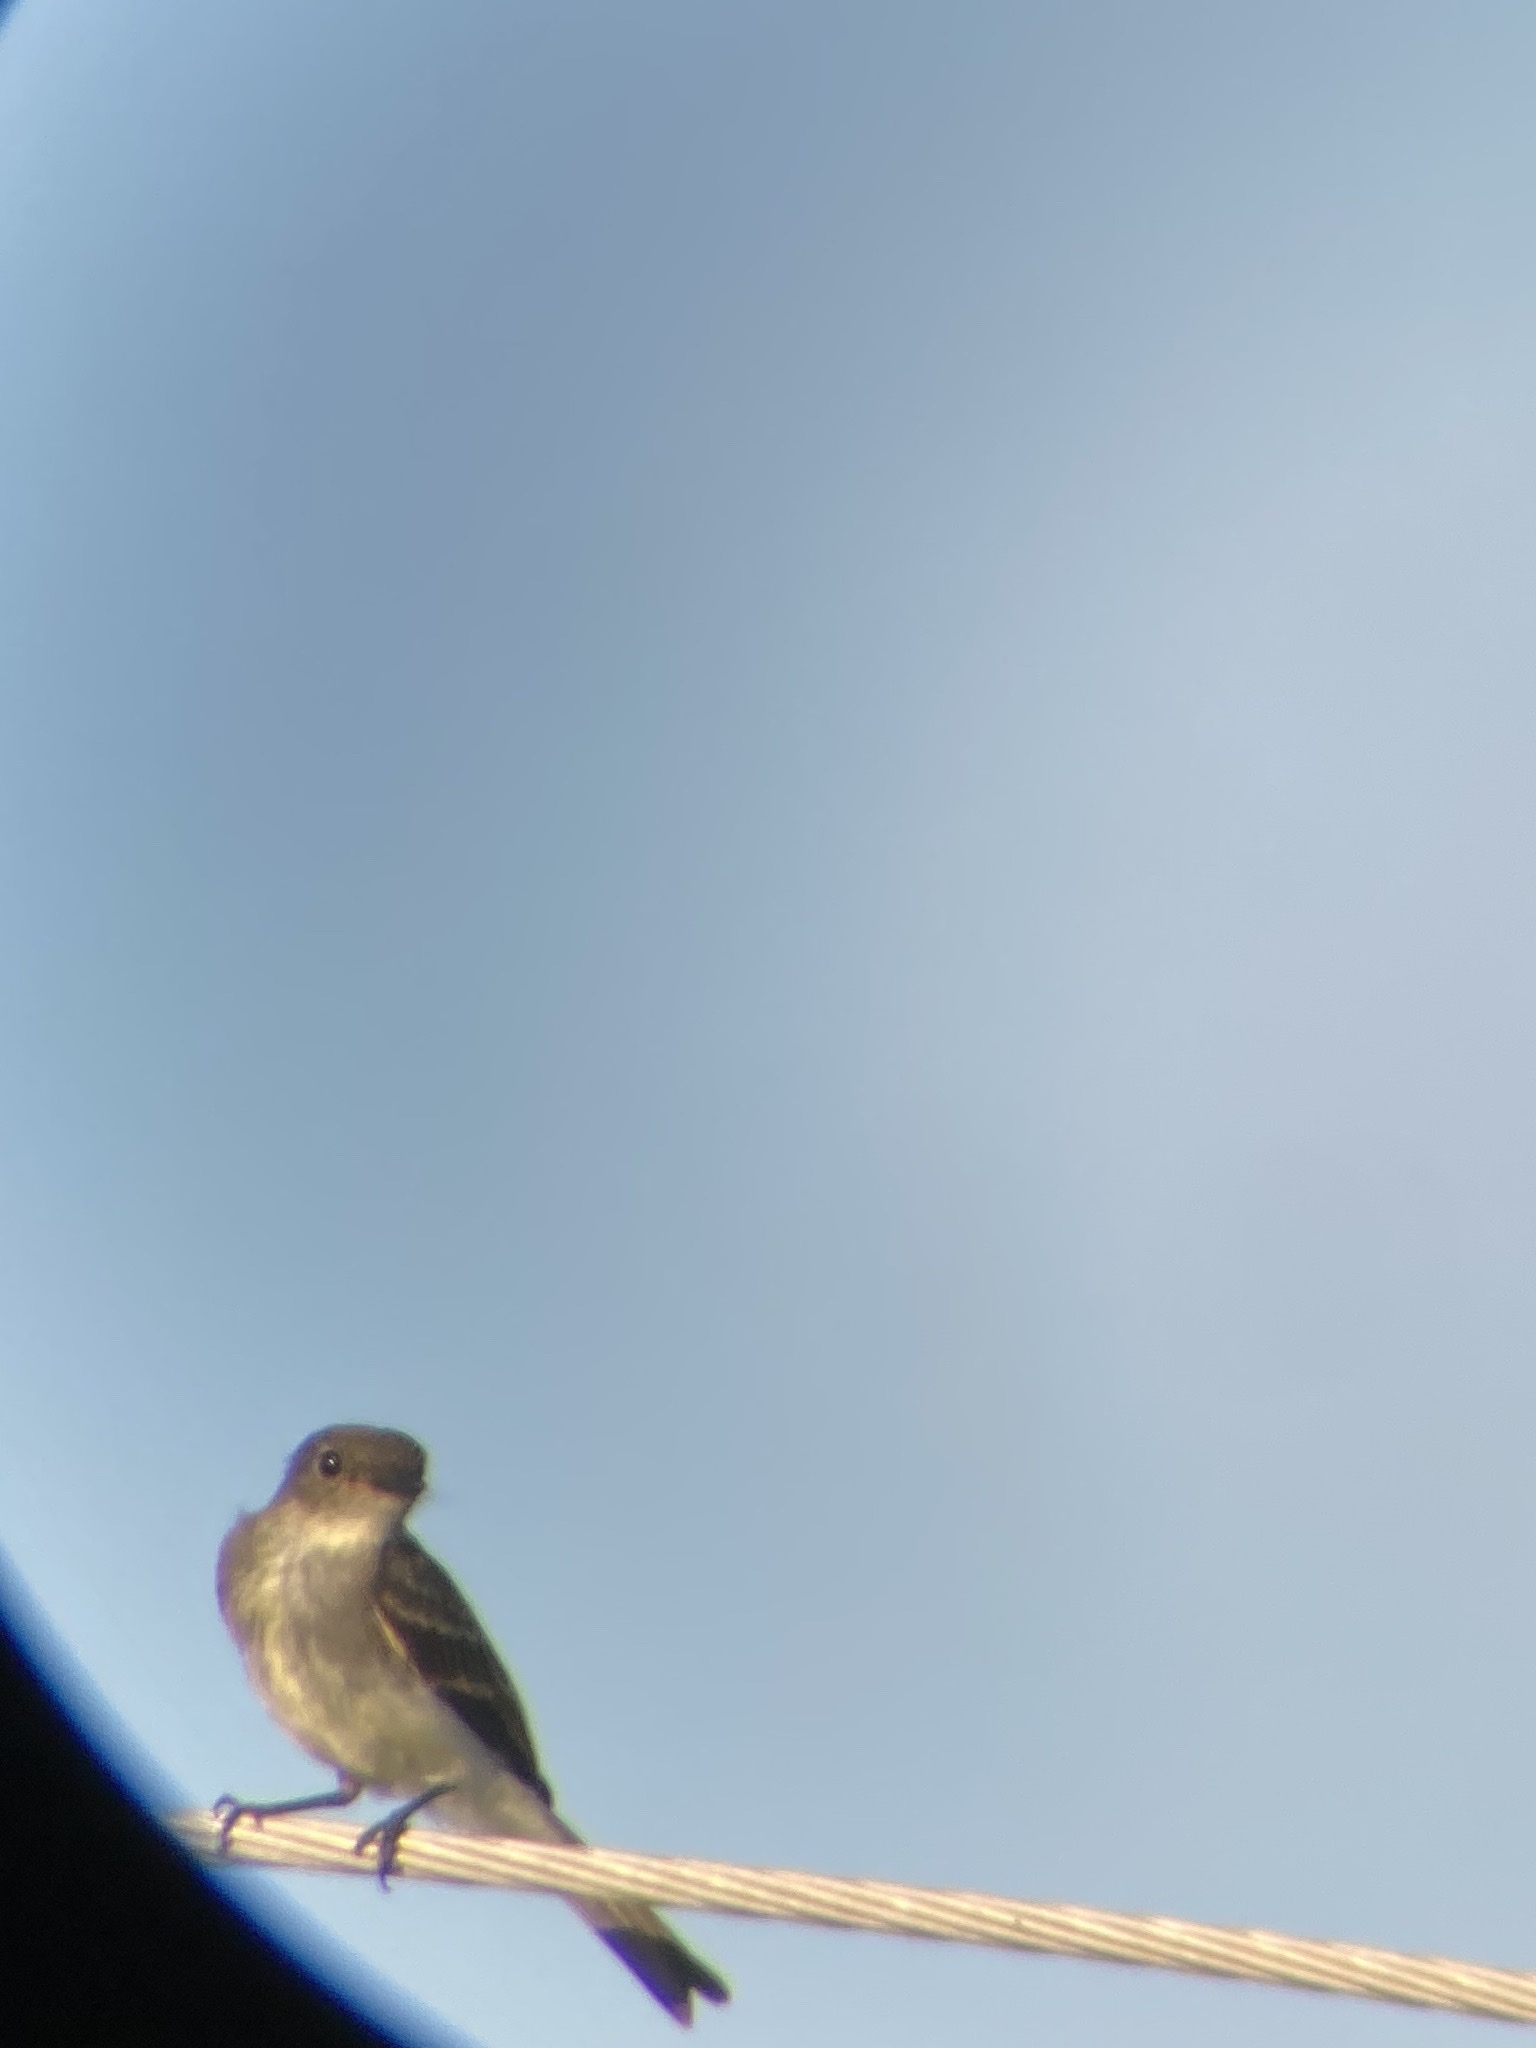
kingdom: Animalia
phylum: Chordata
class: Aves
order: Passeriformes
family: Tyrannidae
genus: Sayornis
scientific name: Sayornis phoebe
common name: Eastern phoebe
